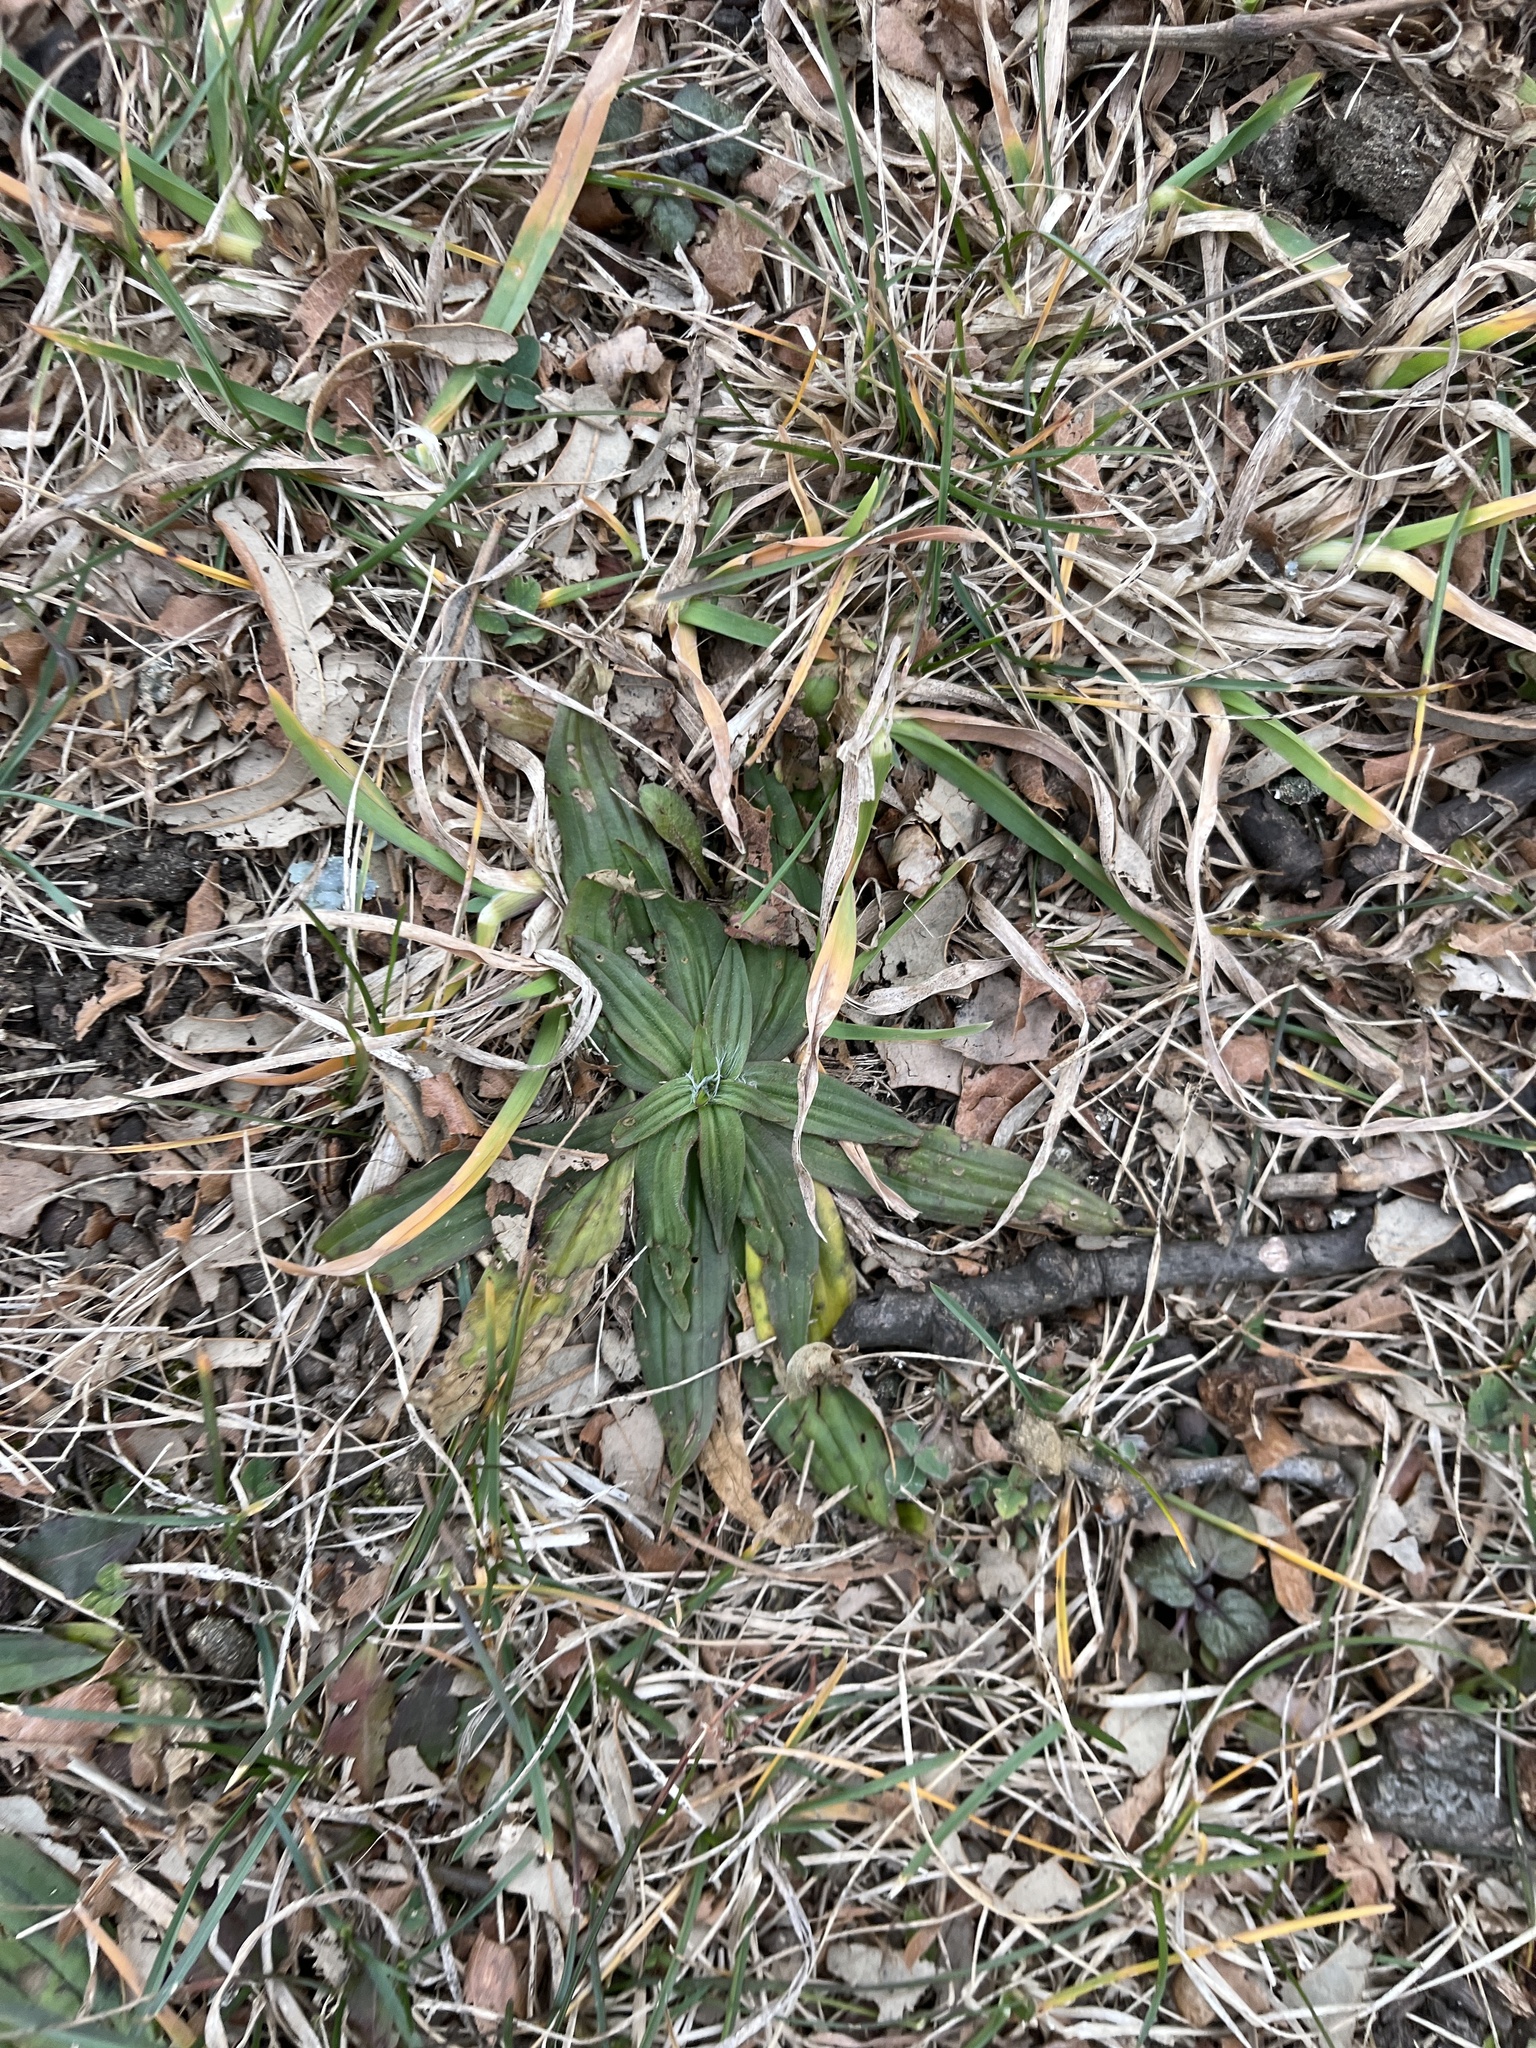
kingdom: Plantae
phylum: Tracheophyta
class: Magnoliopsida
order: Lamiales
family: Plantaginaceae
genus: Plantago
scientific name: Plantago lanceolata
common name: Ribwort plantain
